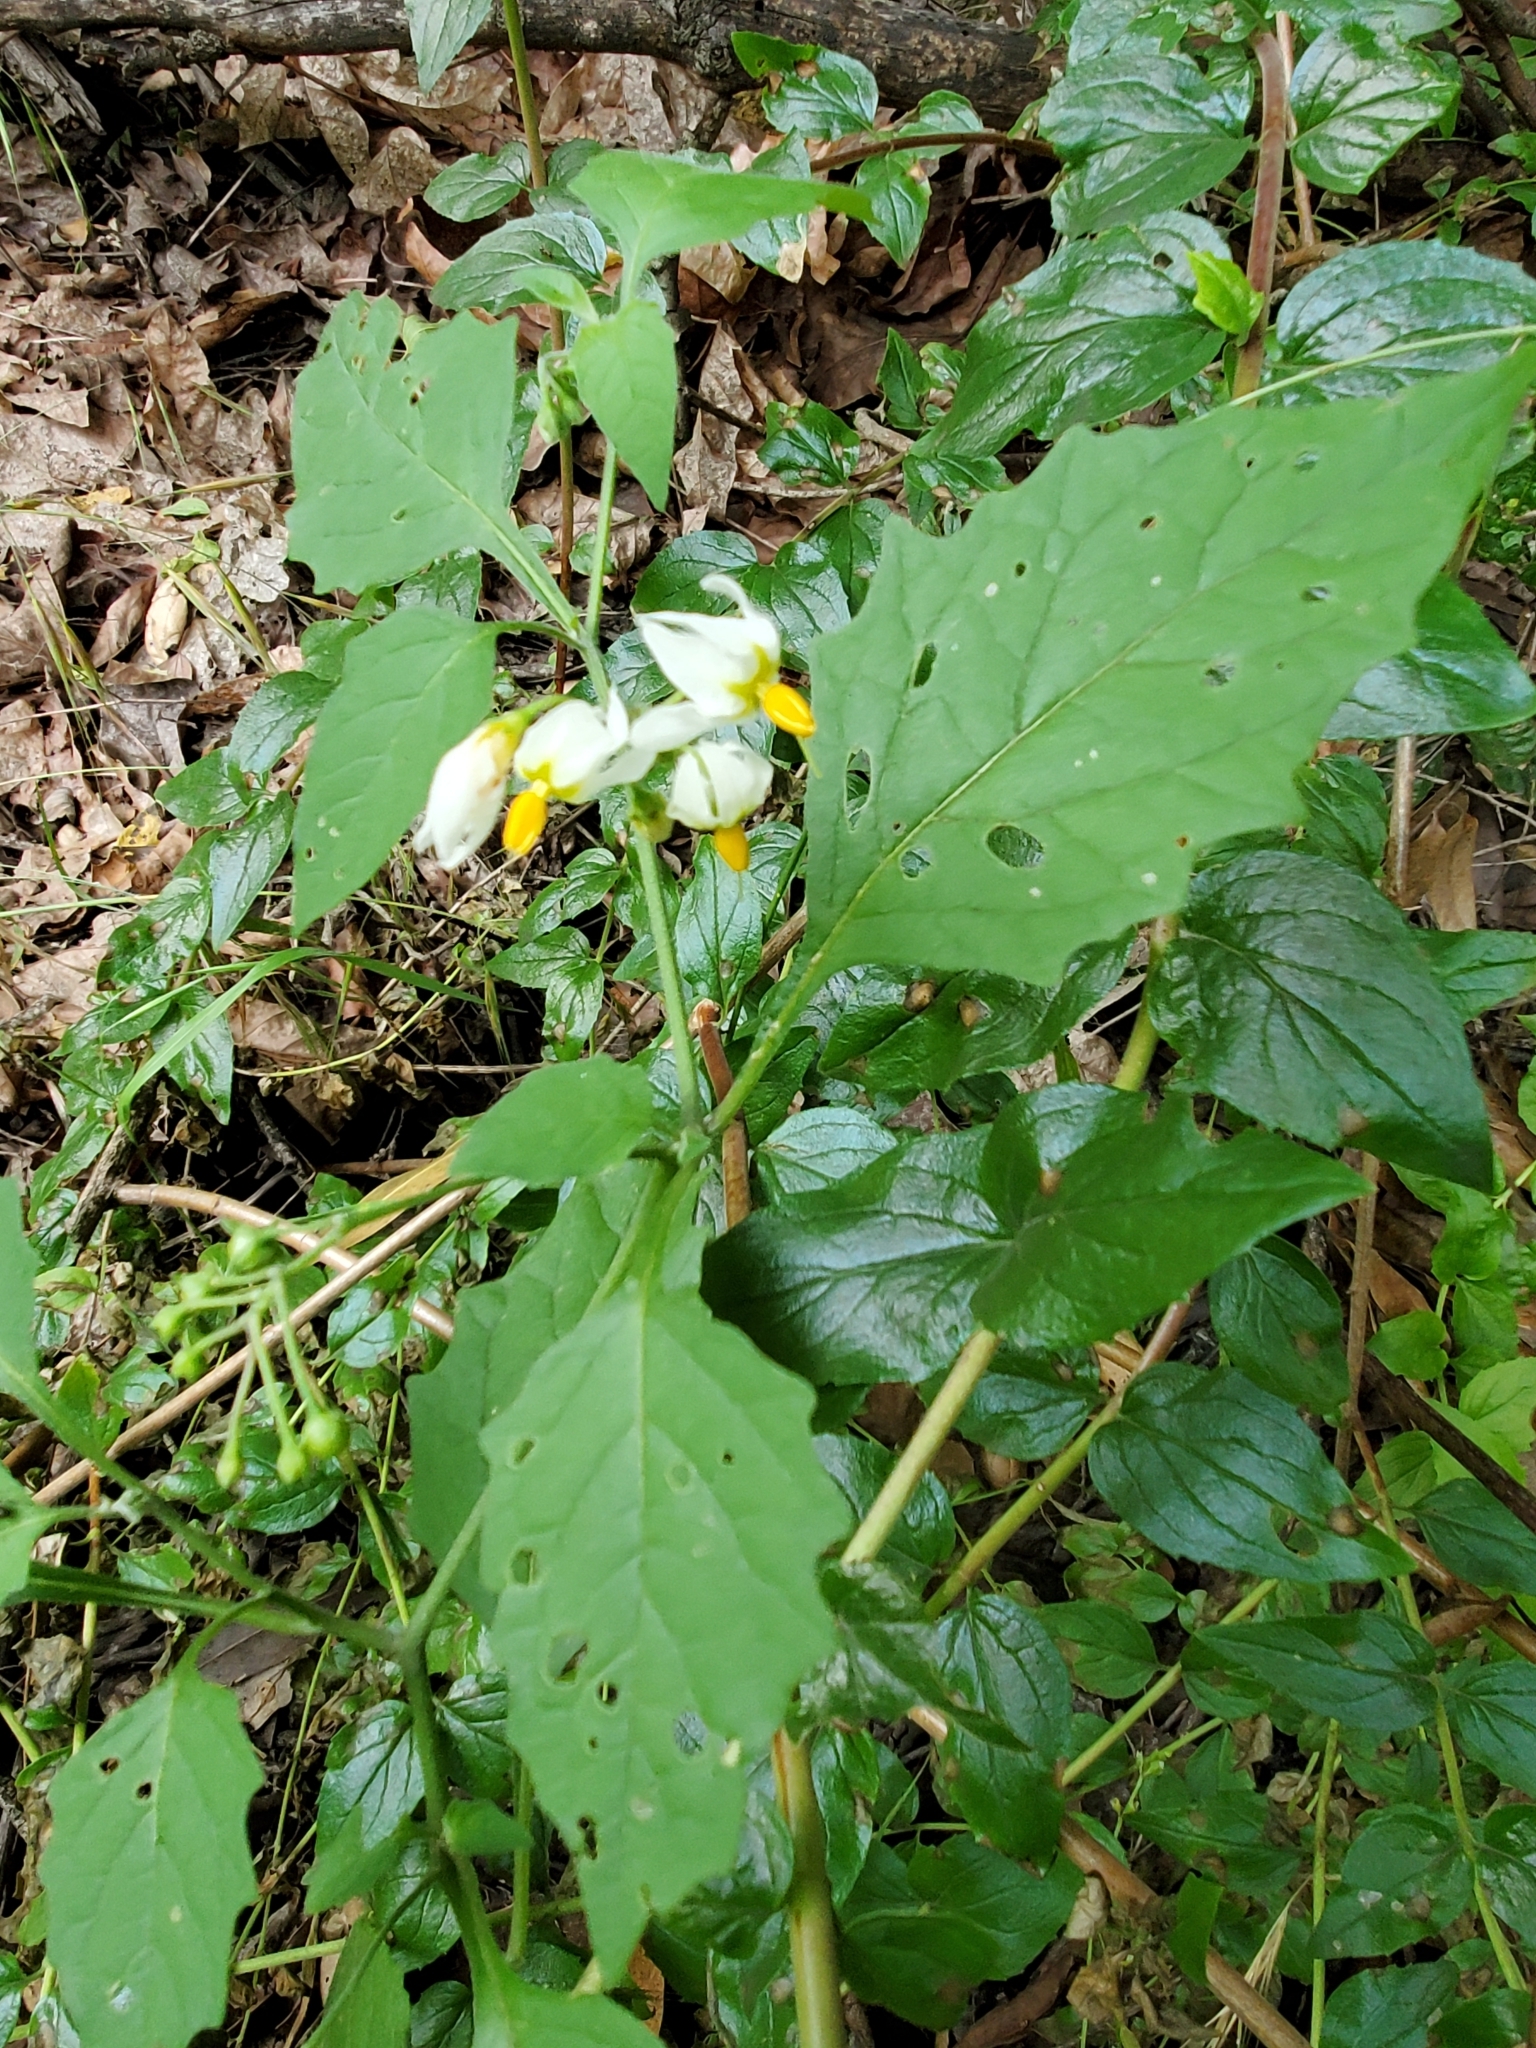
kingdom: Plantae
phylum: Tracheophyta
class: Magnoliopsida
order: Solanales
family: Solanaceae
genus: Solanum
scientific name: Solanum douglasii
